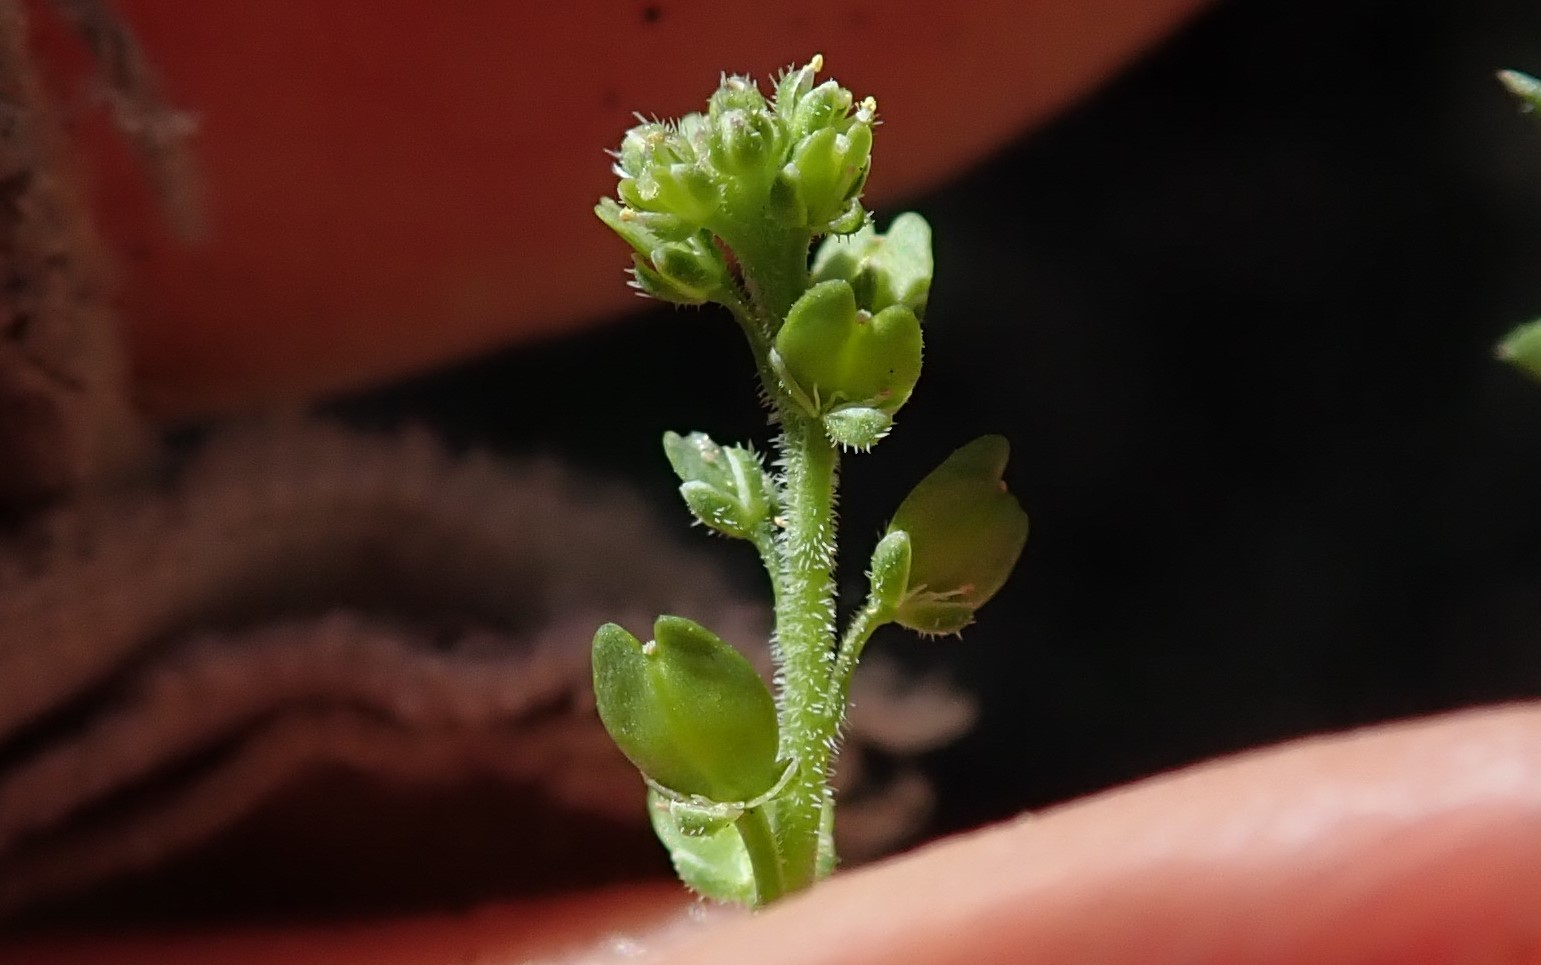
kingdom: Plantae
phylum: Tracheophyta
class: Magnoliopsida
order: Brassicales
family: Brassicaceae
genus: Lepidium
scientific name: Lepidium strictum
